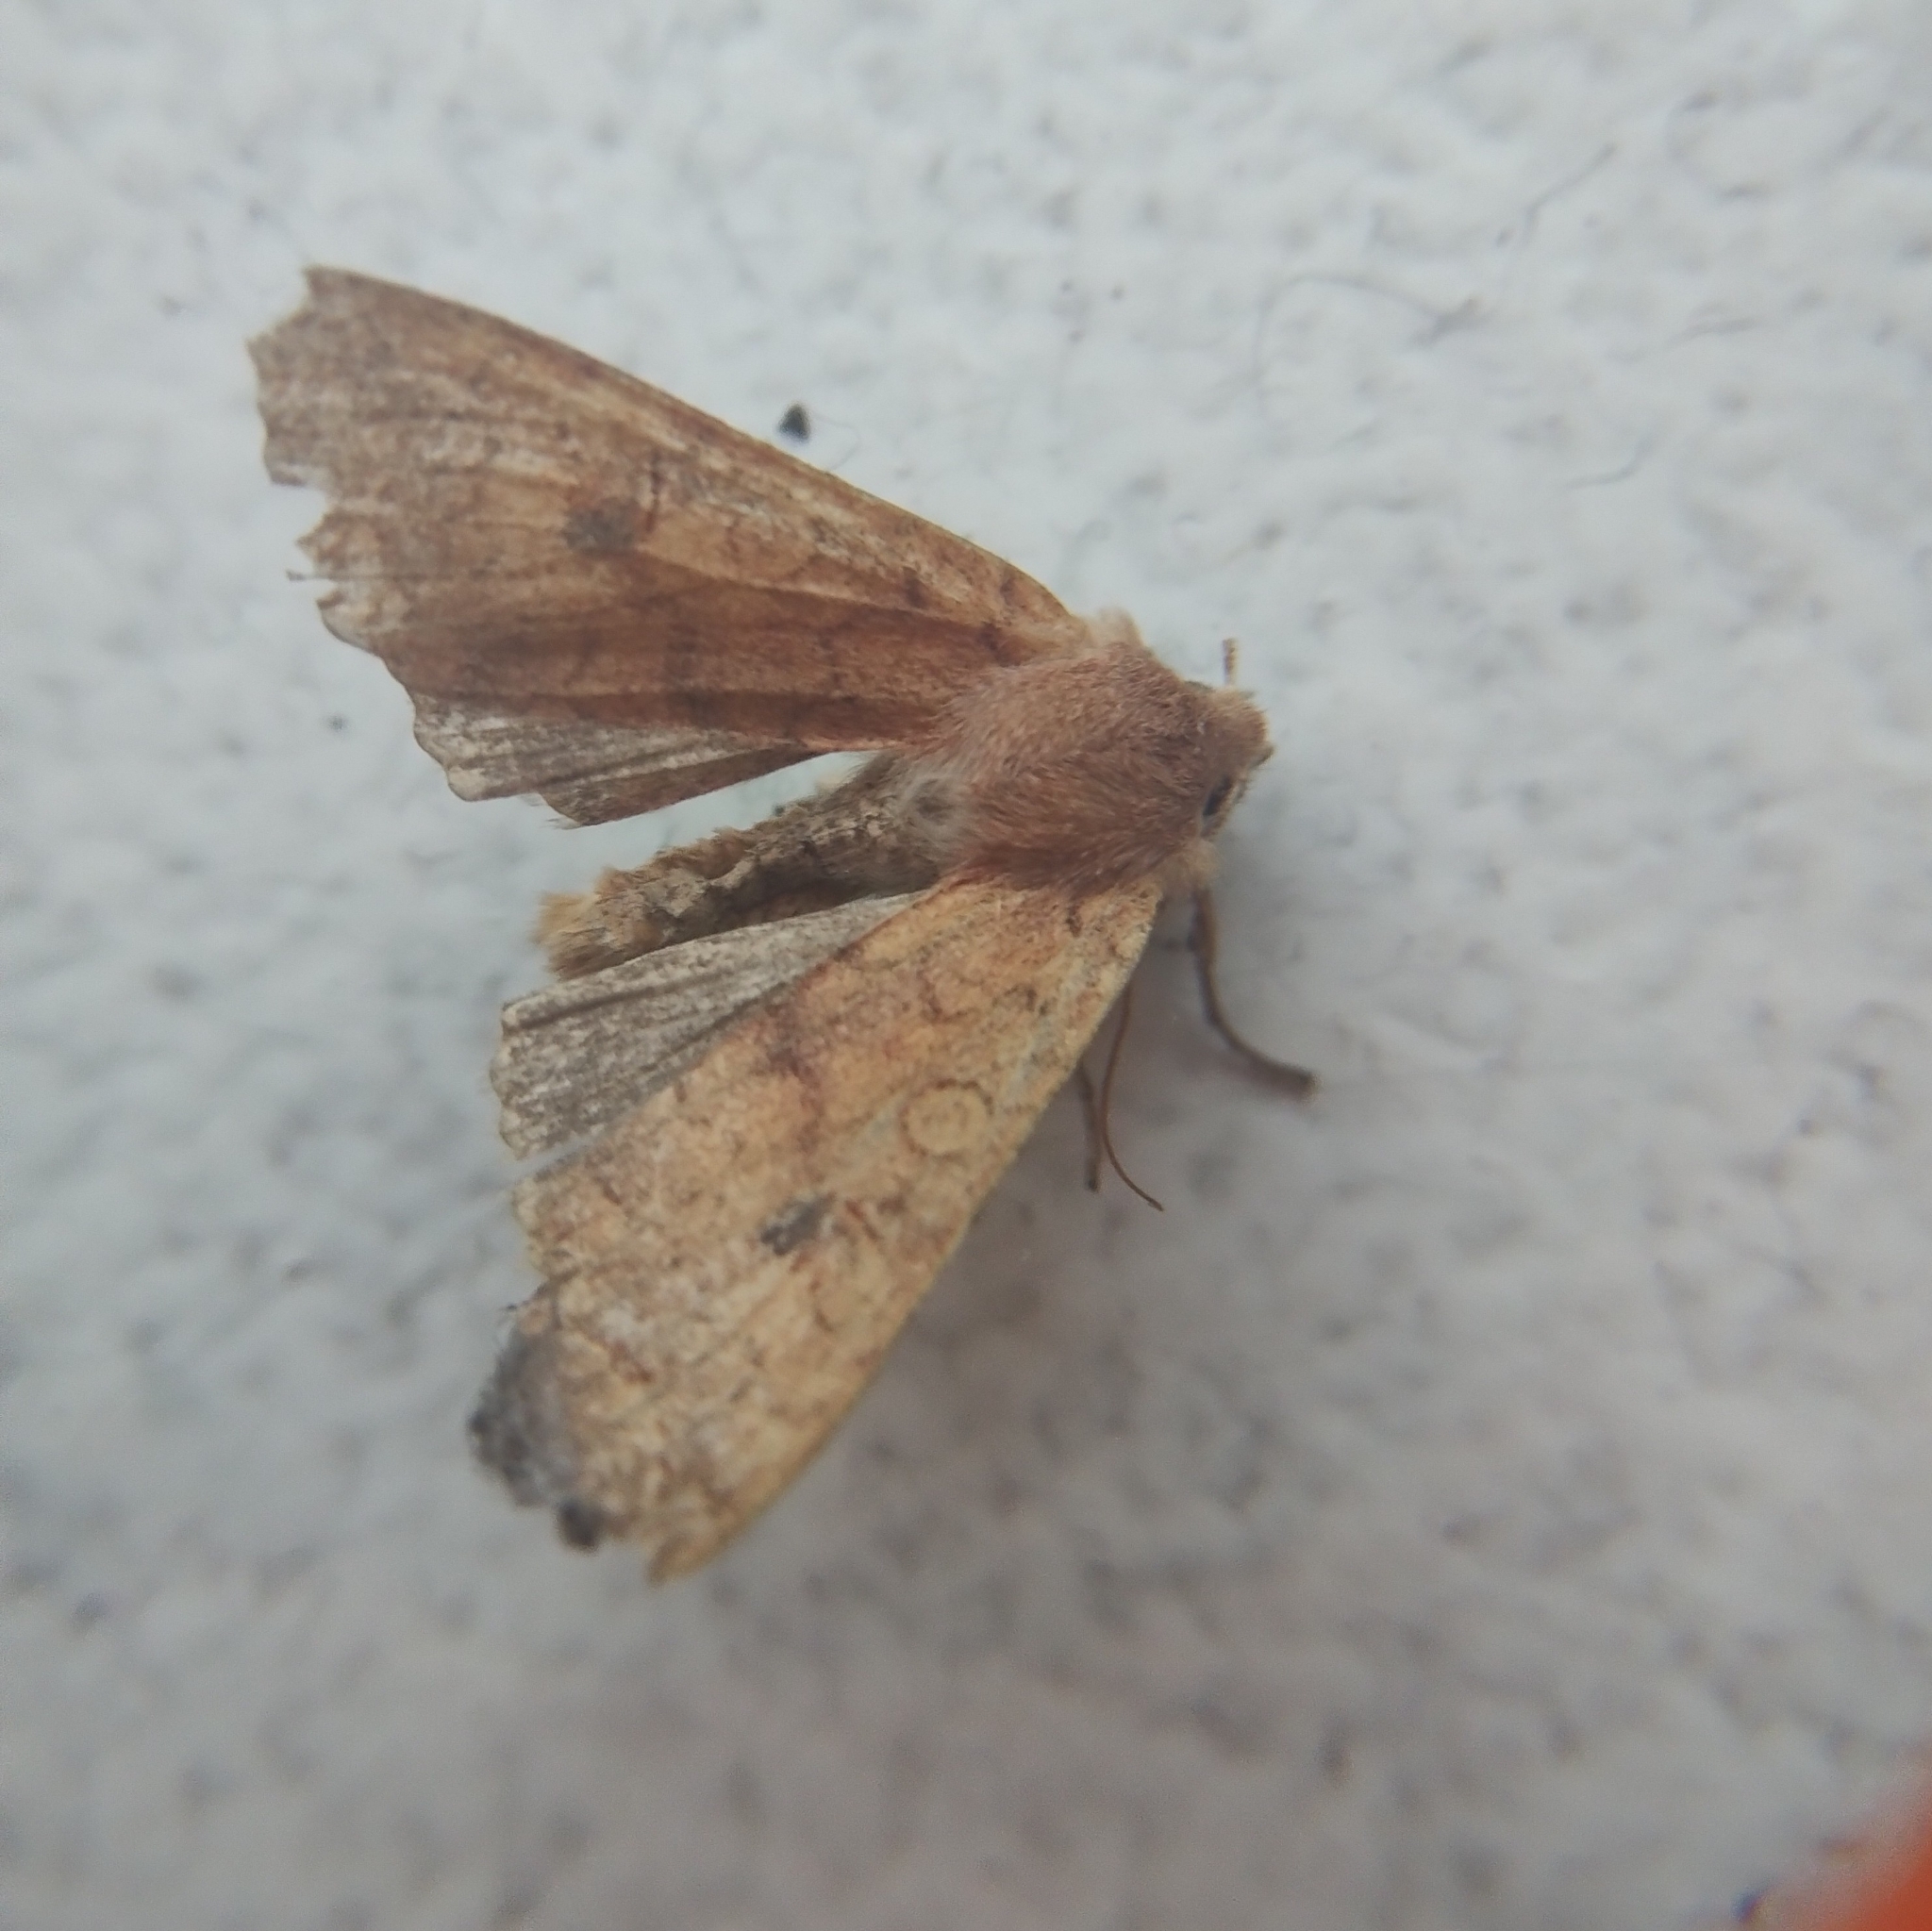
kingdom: Animalia
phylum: Arthropoda
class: Insecta
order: Lepidoptera
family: Noctuidae
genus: Sunira
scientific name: Sunira circellaris
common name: Brick
